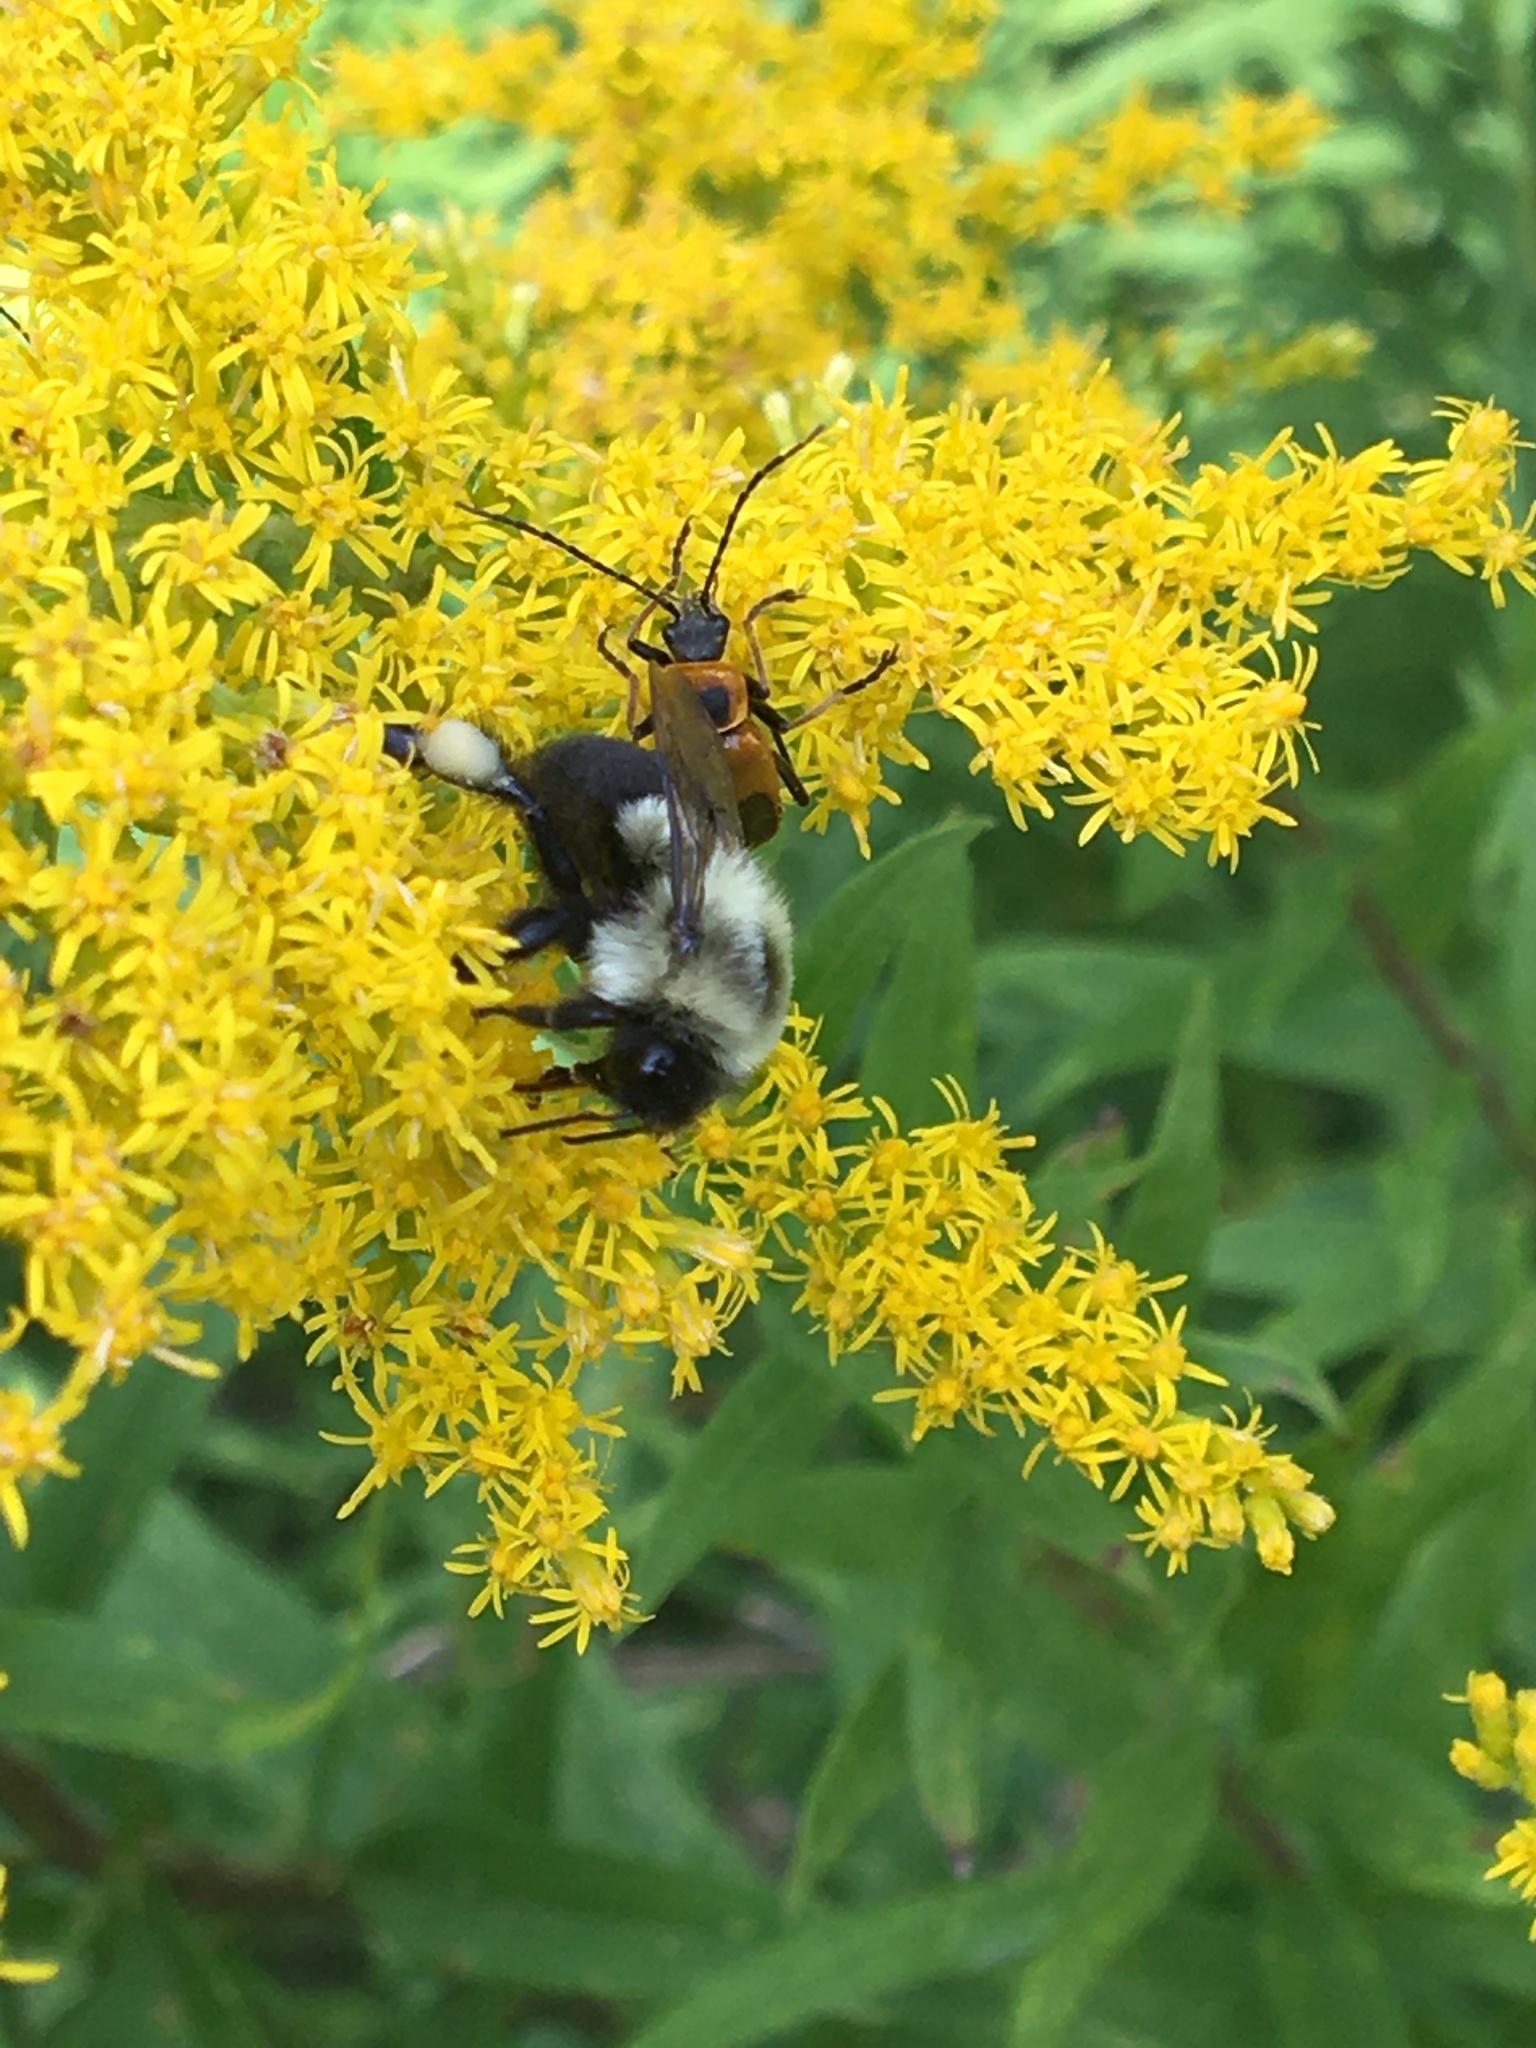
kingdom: Animalia
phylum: Arthropoda
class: Insecta
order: Hymenoptera
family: Apidae
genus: Bombus
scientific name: Bombus impatiens
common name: Common eastern bumble bee
